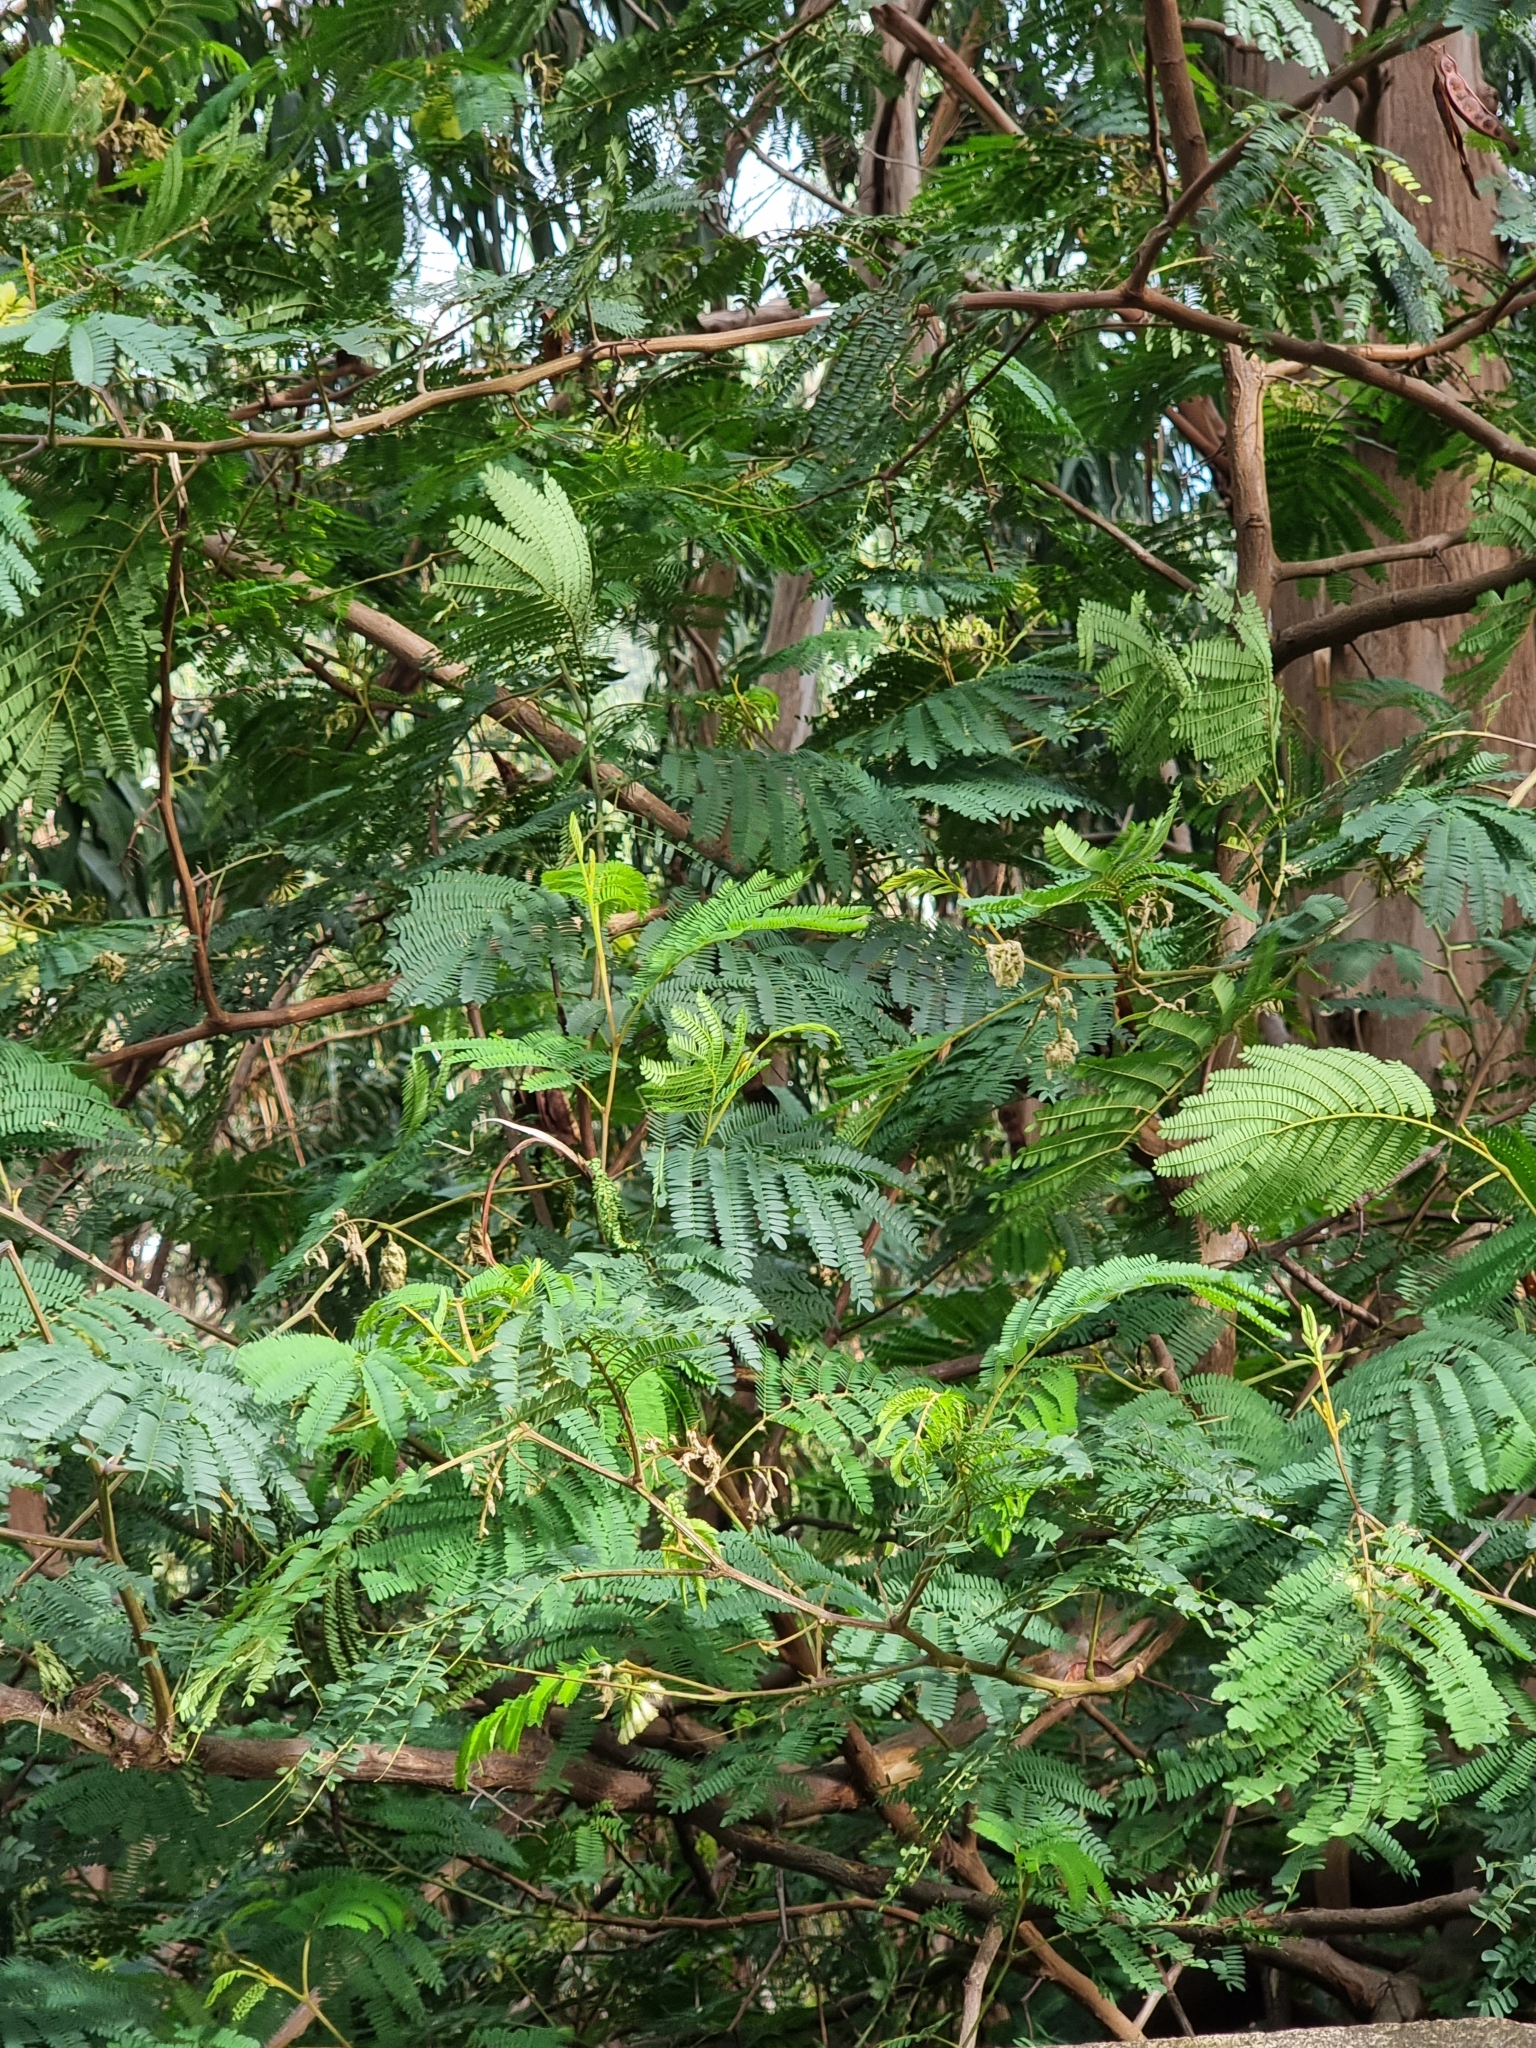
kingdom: Plantae
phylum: Tracheophyta
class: Magnoliopsida
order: Fabales
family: Fabaceae
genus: Paraserianthes
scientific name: Paraserianthes lophantha
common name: Plume albizia
